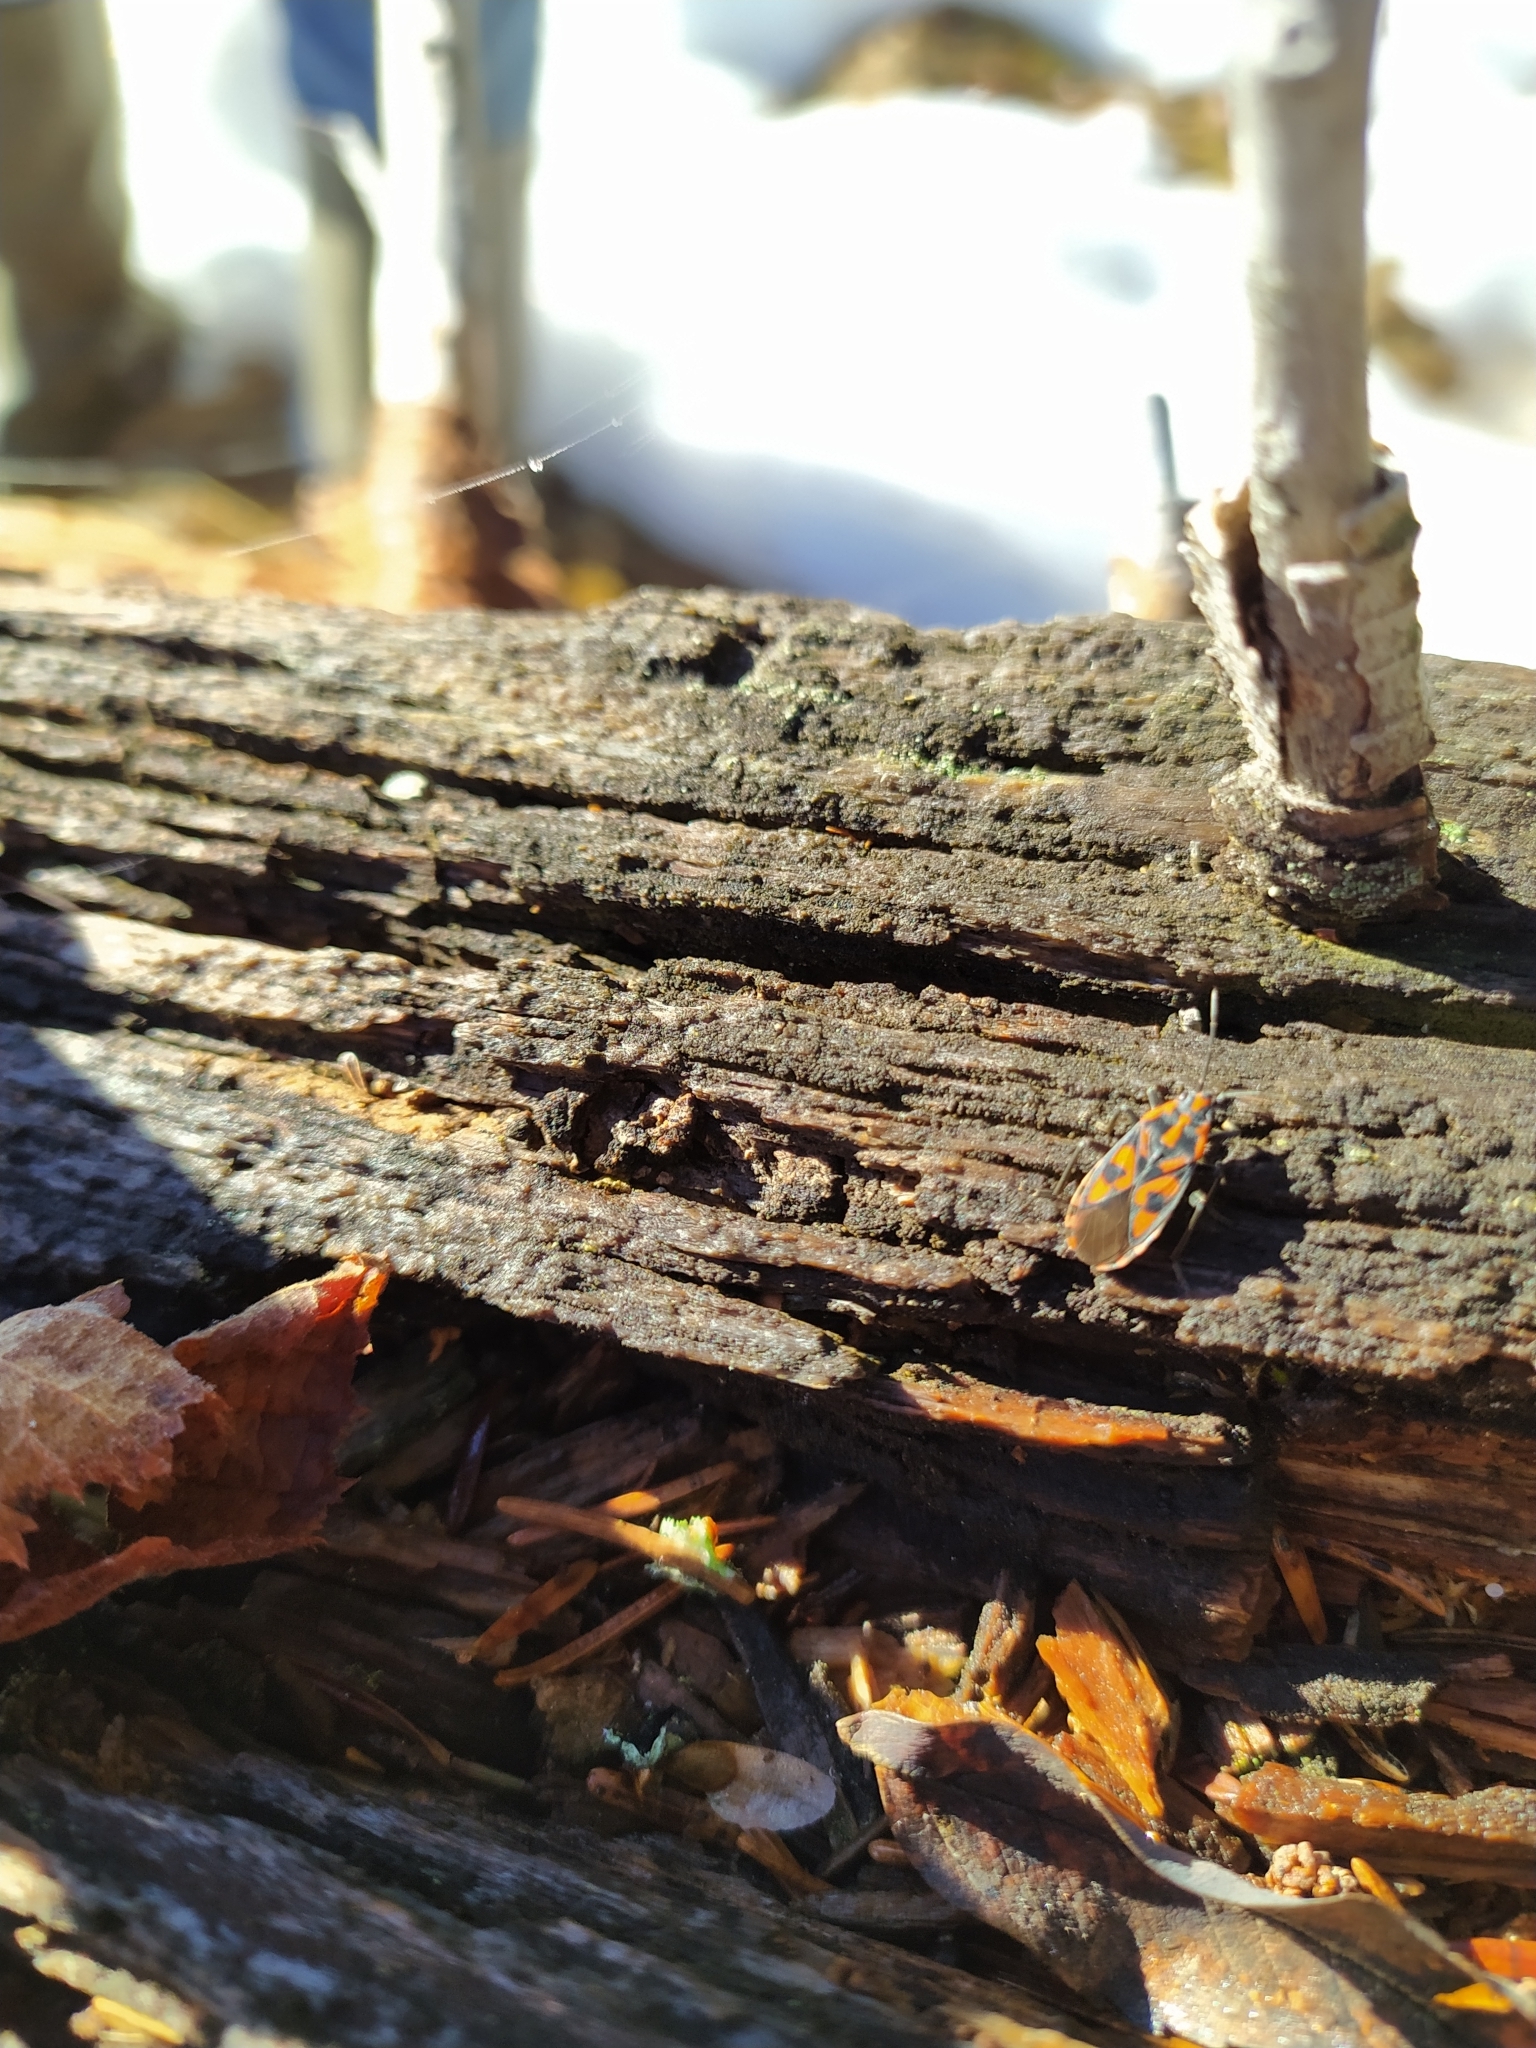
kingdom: Animalia
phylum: Arthropoda
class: Insecta
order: Hemiptera
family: Lygaeidae
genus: Spilostethus
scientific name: Spilostethus saxatilis
